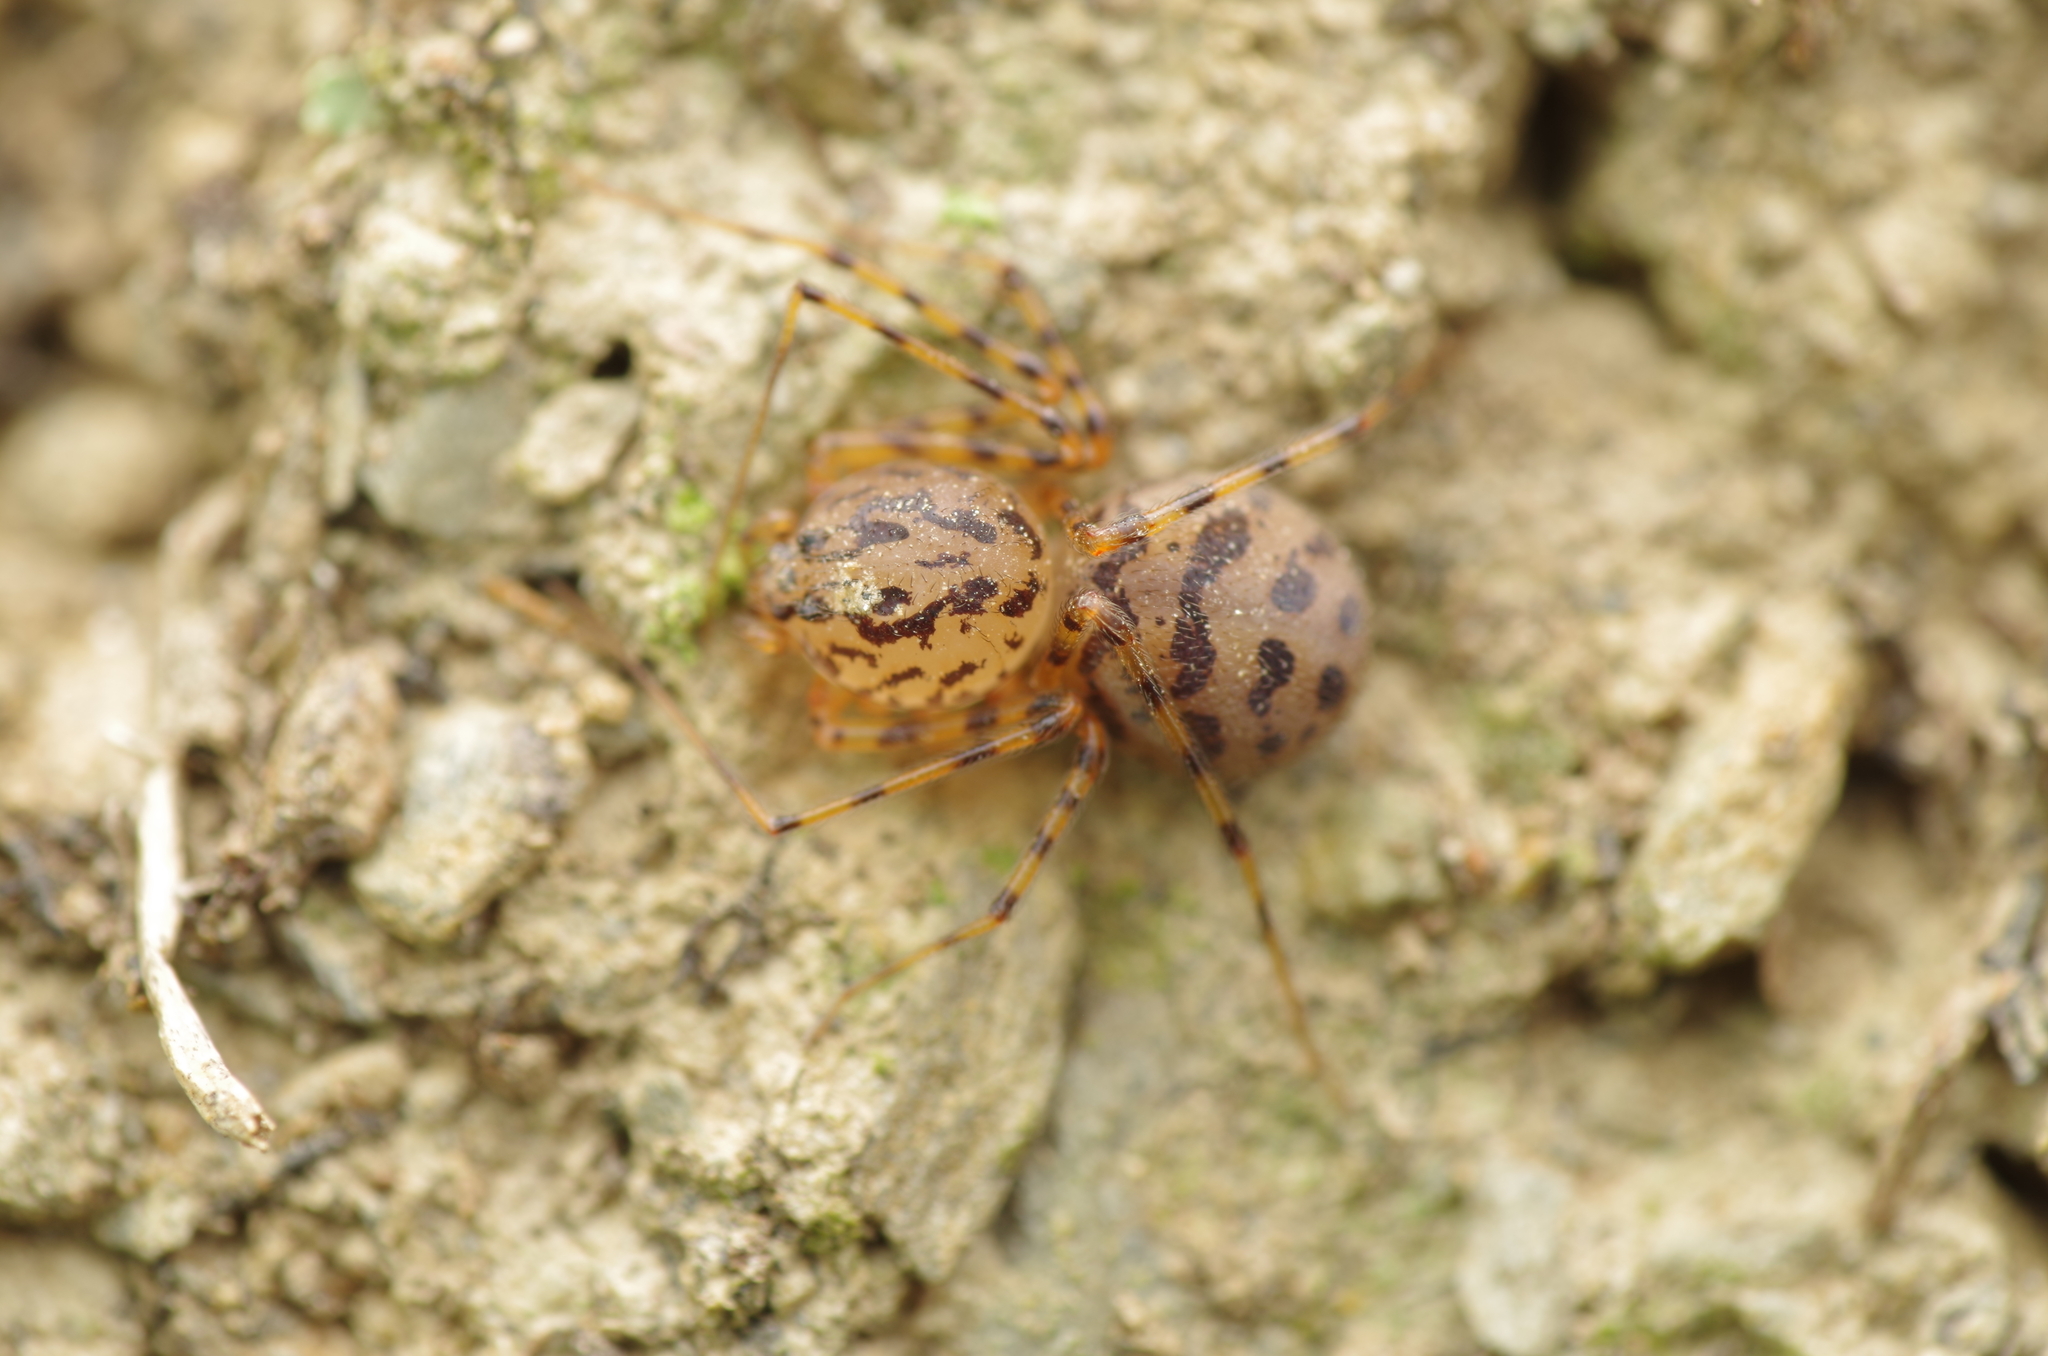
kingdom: Animalia
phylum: Arthropoda
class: Arachnida
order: Araneae
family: Scytodidae
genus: Scytodes
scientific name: Scytodes thoracica
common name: Spitting spider
